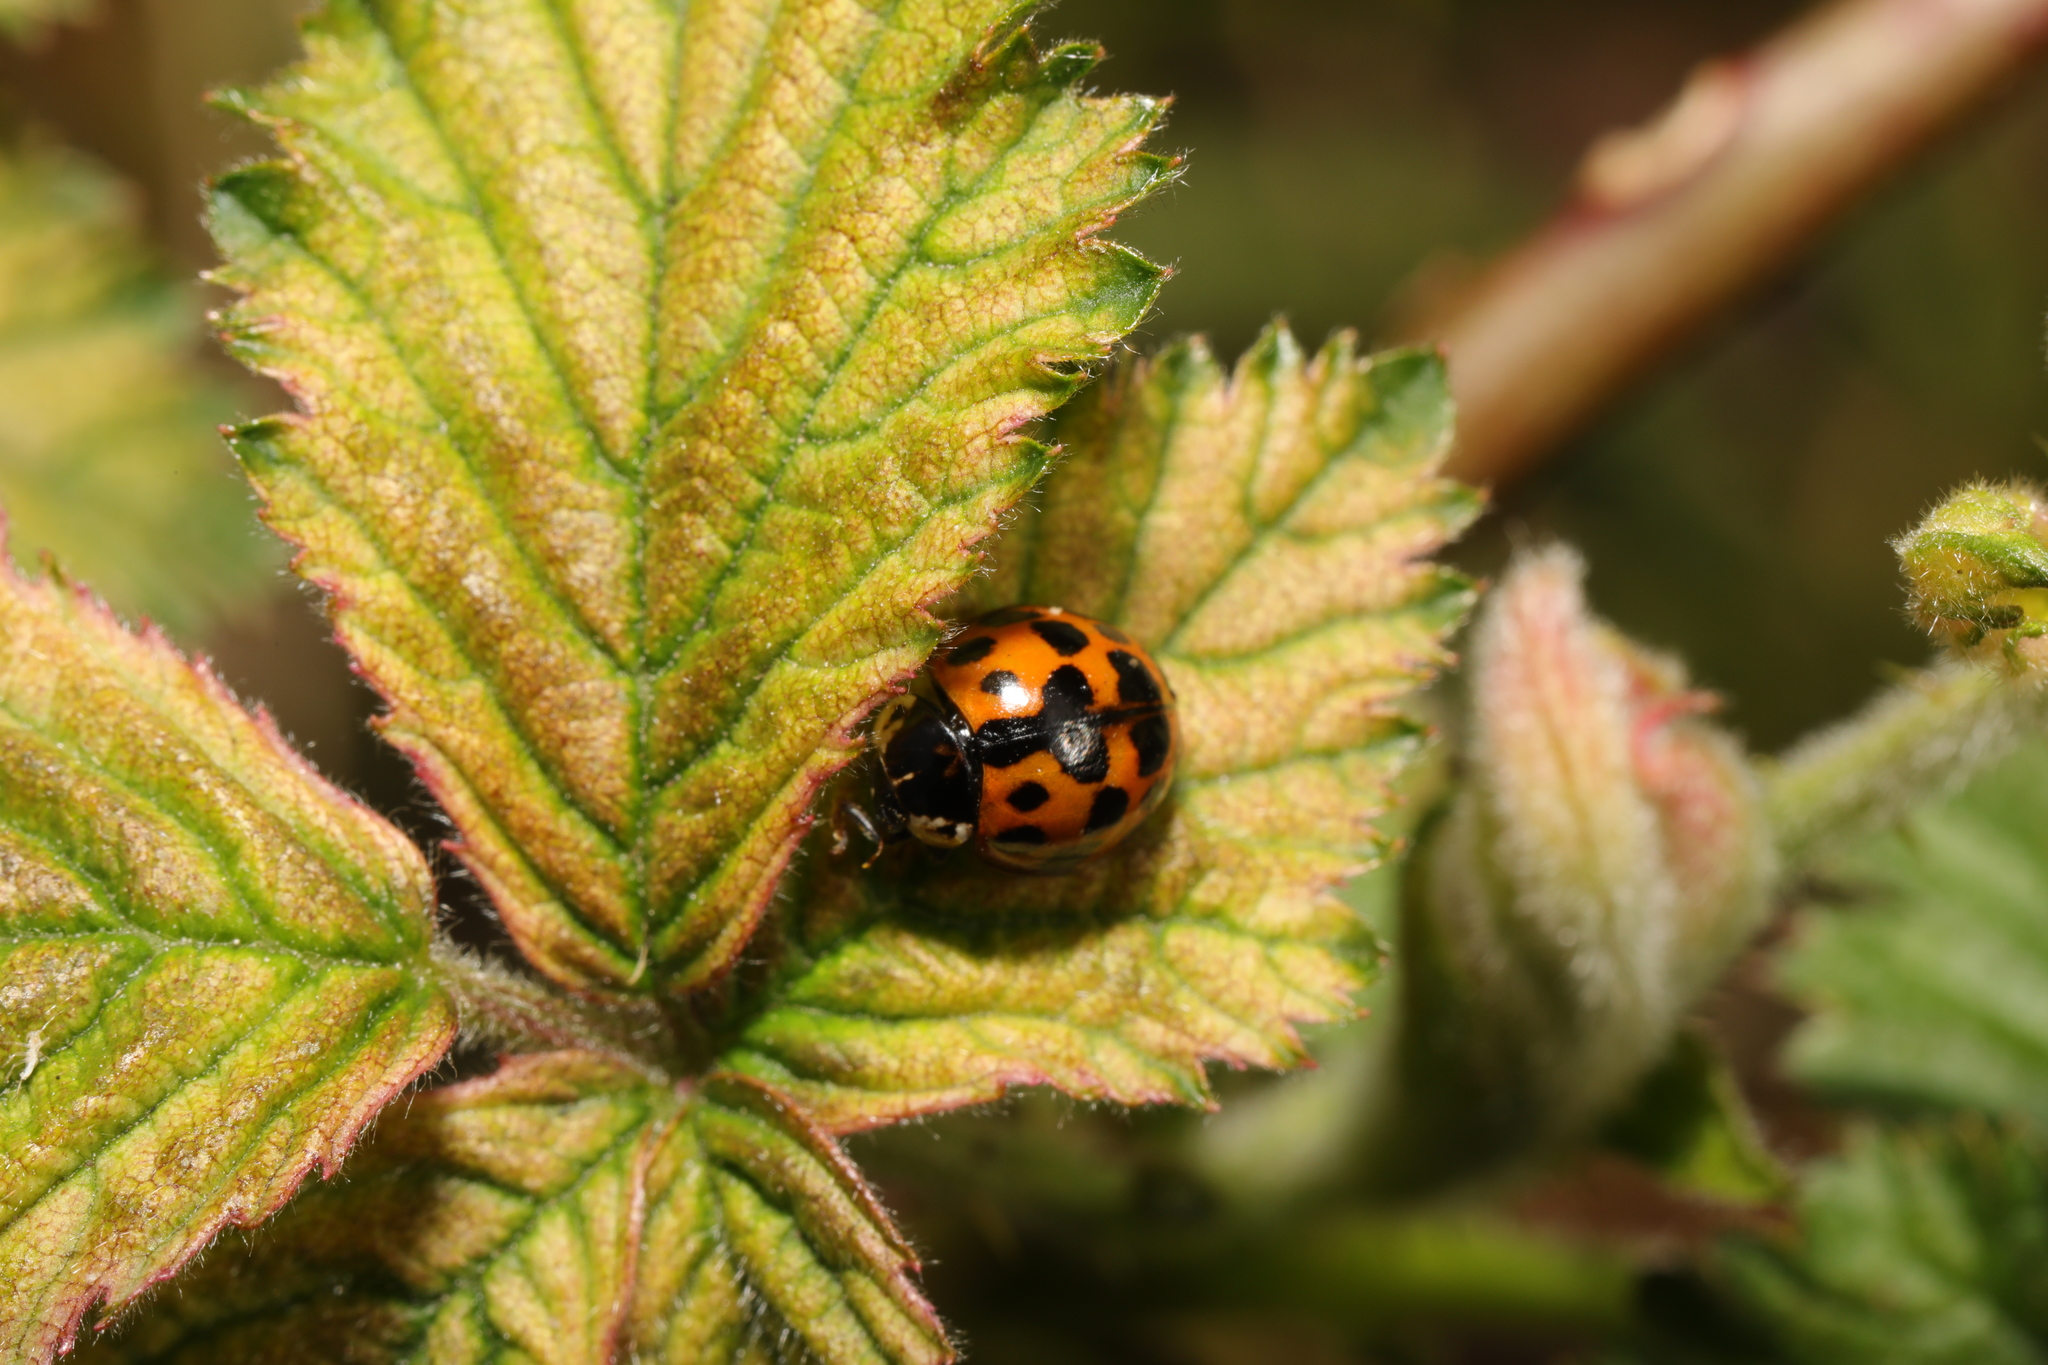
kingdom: Animalia
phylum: Arthropoda
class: Insecta
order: Coleoptera
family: Coccinellidae
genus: Harmonia
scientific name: Harmonia axyridis
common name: Harlequin ladybird
